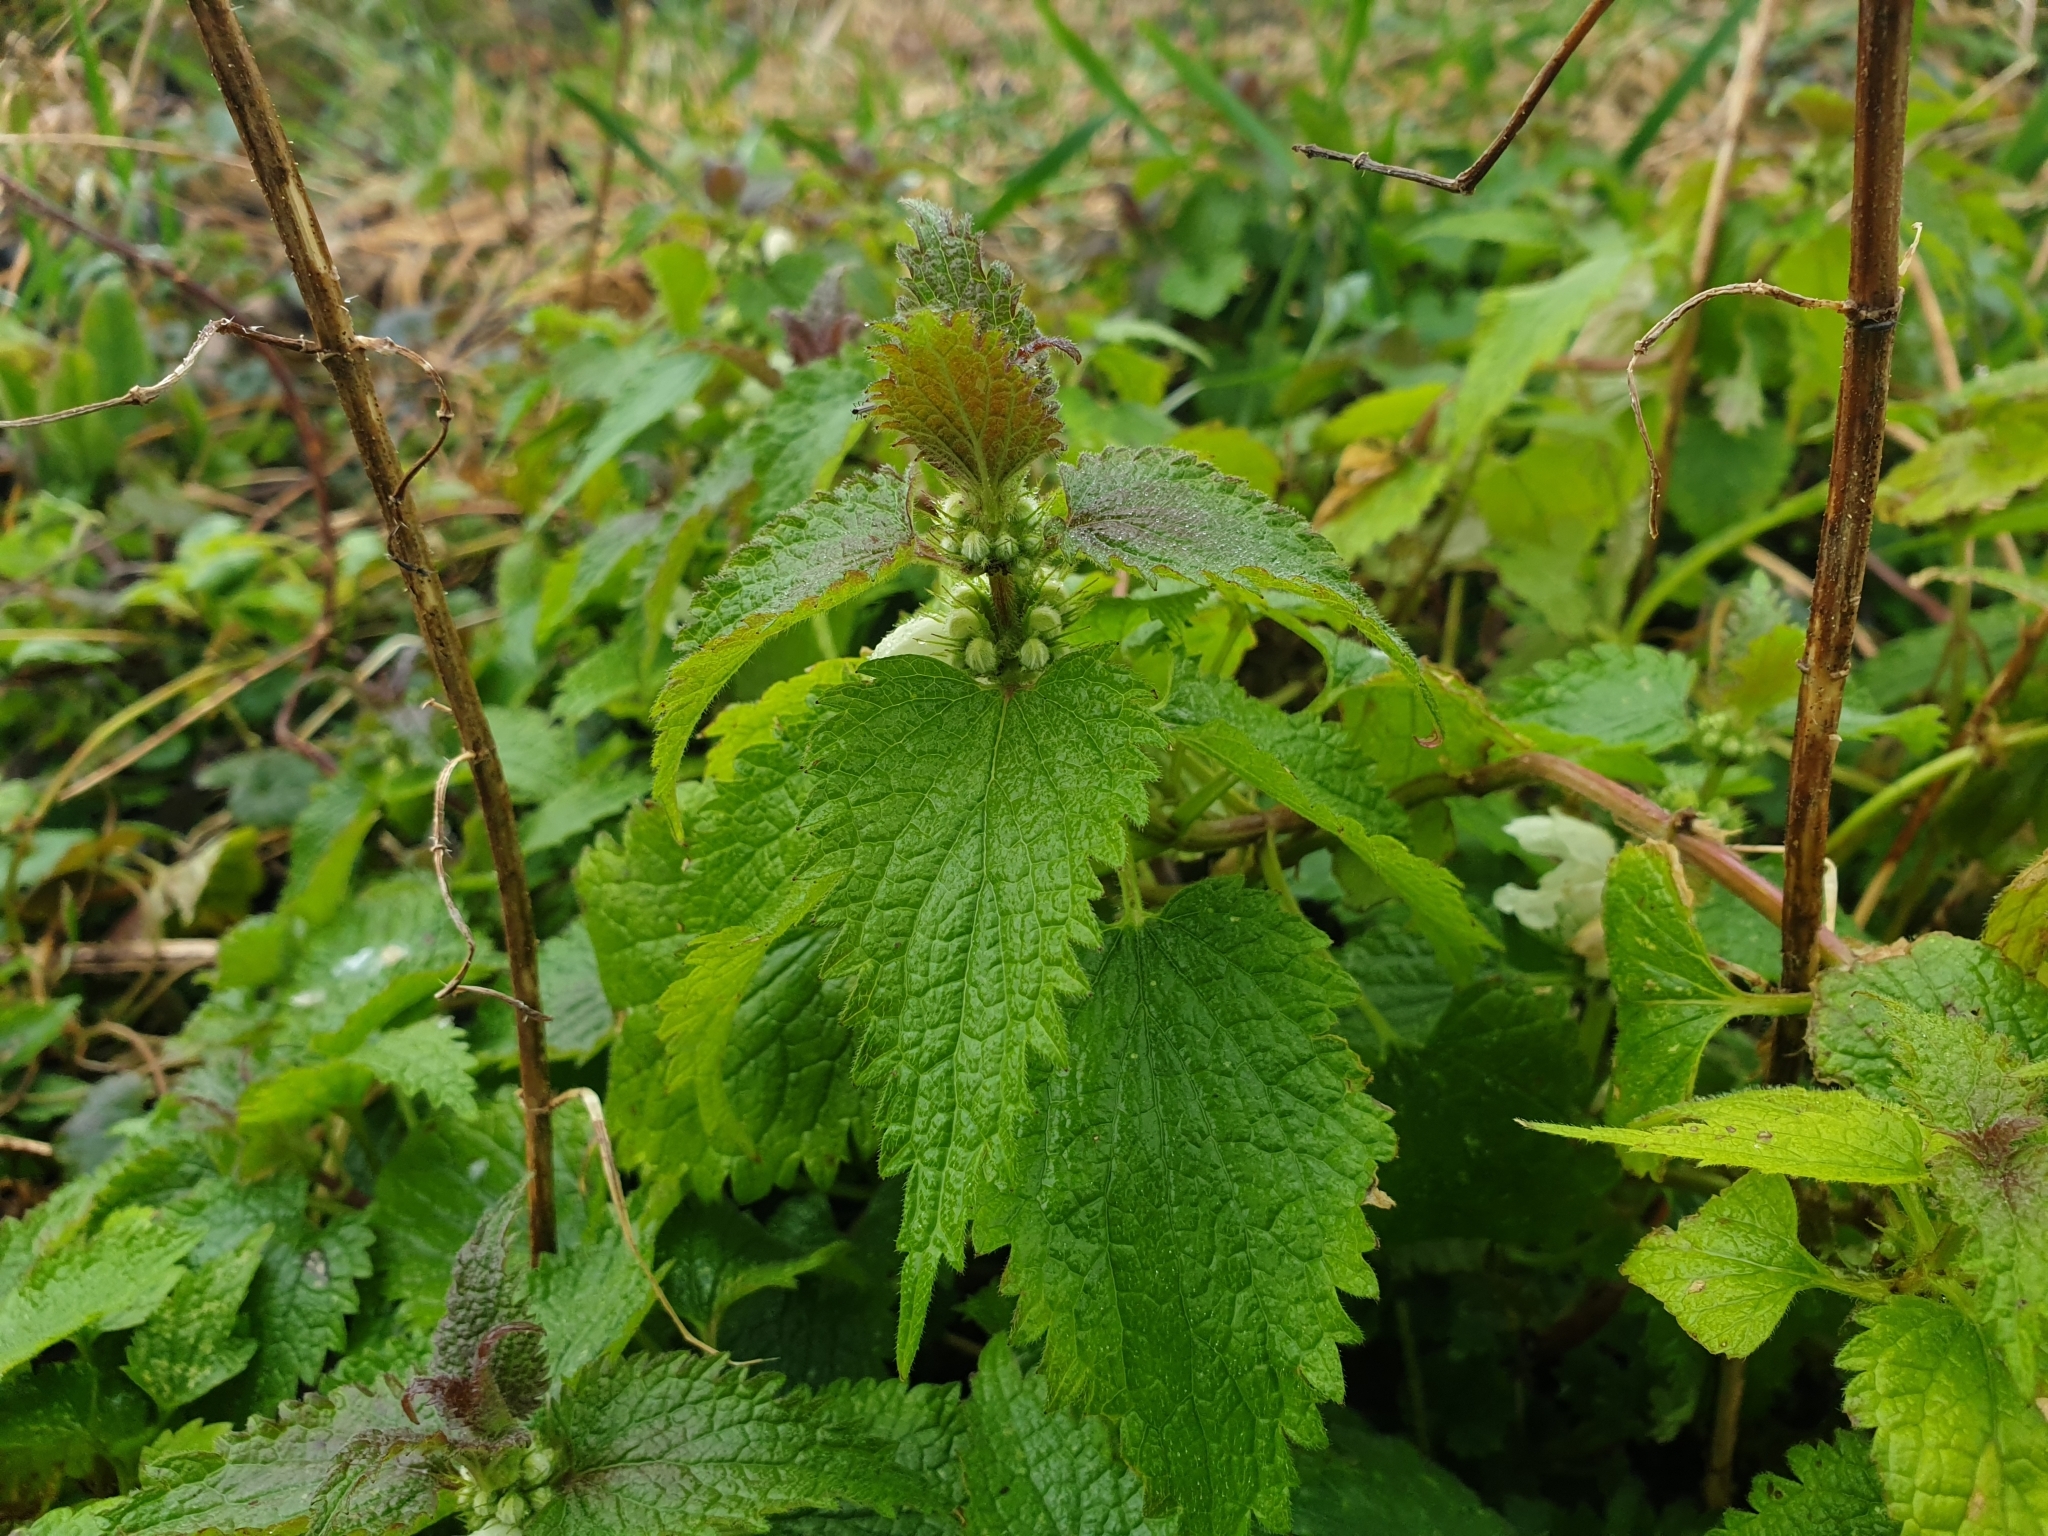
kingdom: Plantae
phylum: Tracheophyta
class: Magnoliopsida
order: Lamiales
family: Lamiaceae
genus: Lamium
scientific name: Lamium album
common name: White dead-nettle
